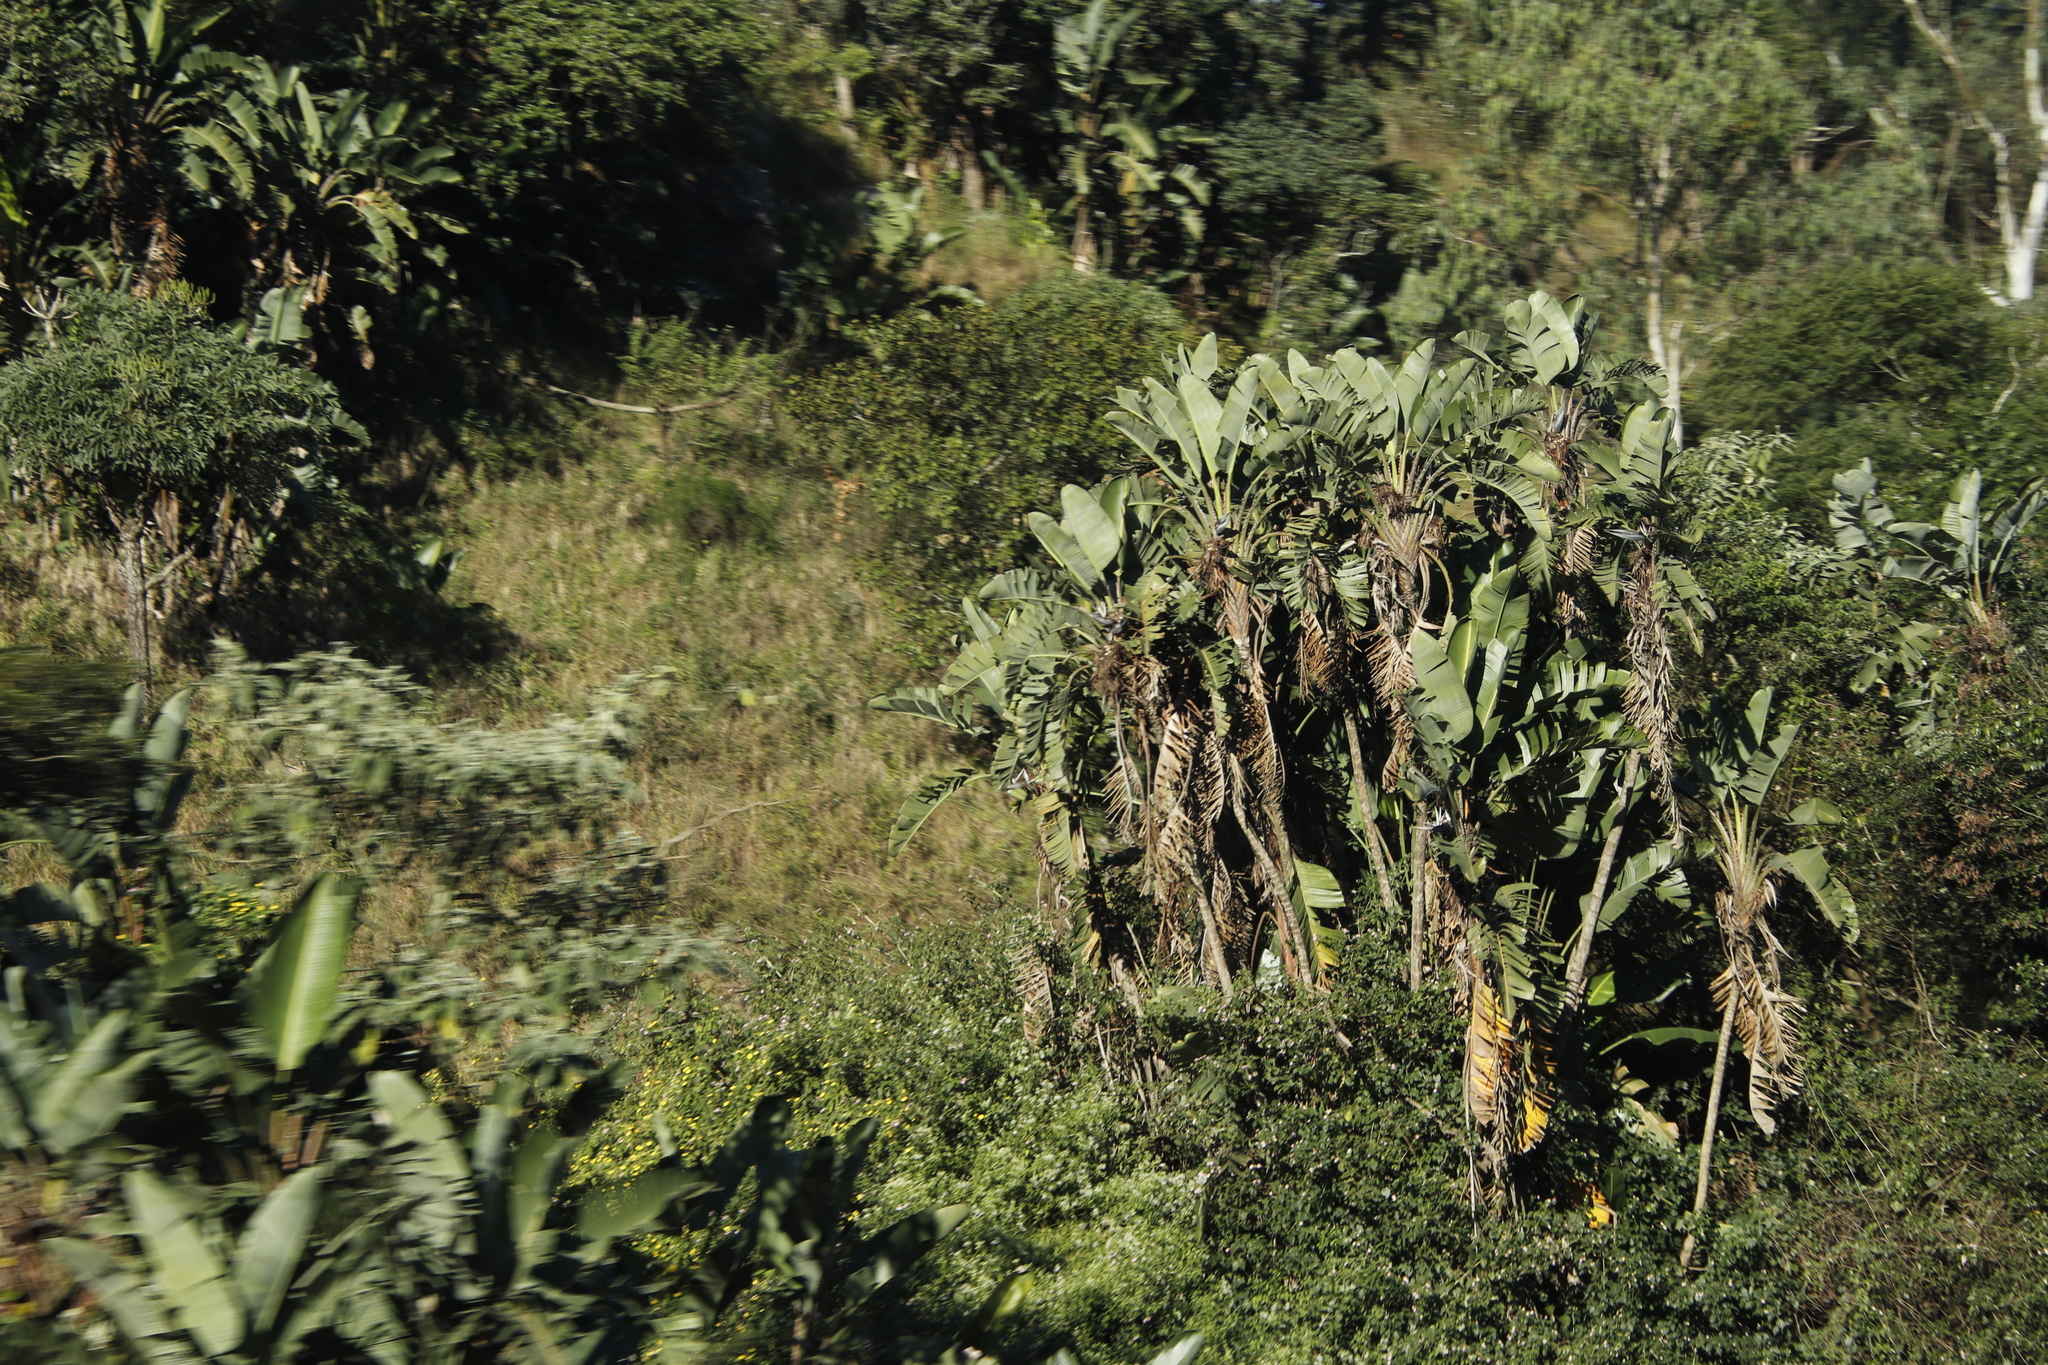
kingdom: Plantae
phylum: Tracheophyta
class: Liliopsida
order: Zingiberales
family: Strelitziaceae
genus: Strelitzia
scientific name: Strelitzia nicolai
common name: Bird-of-paradise tree
